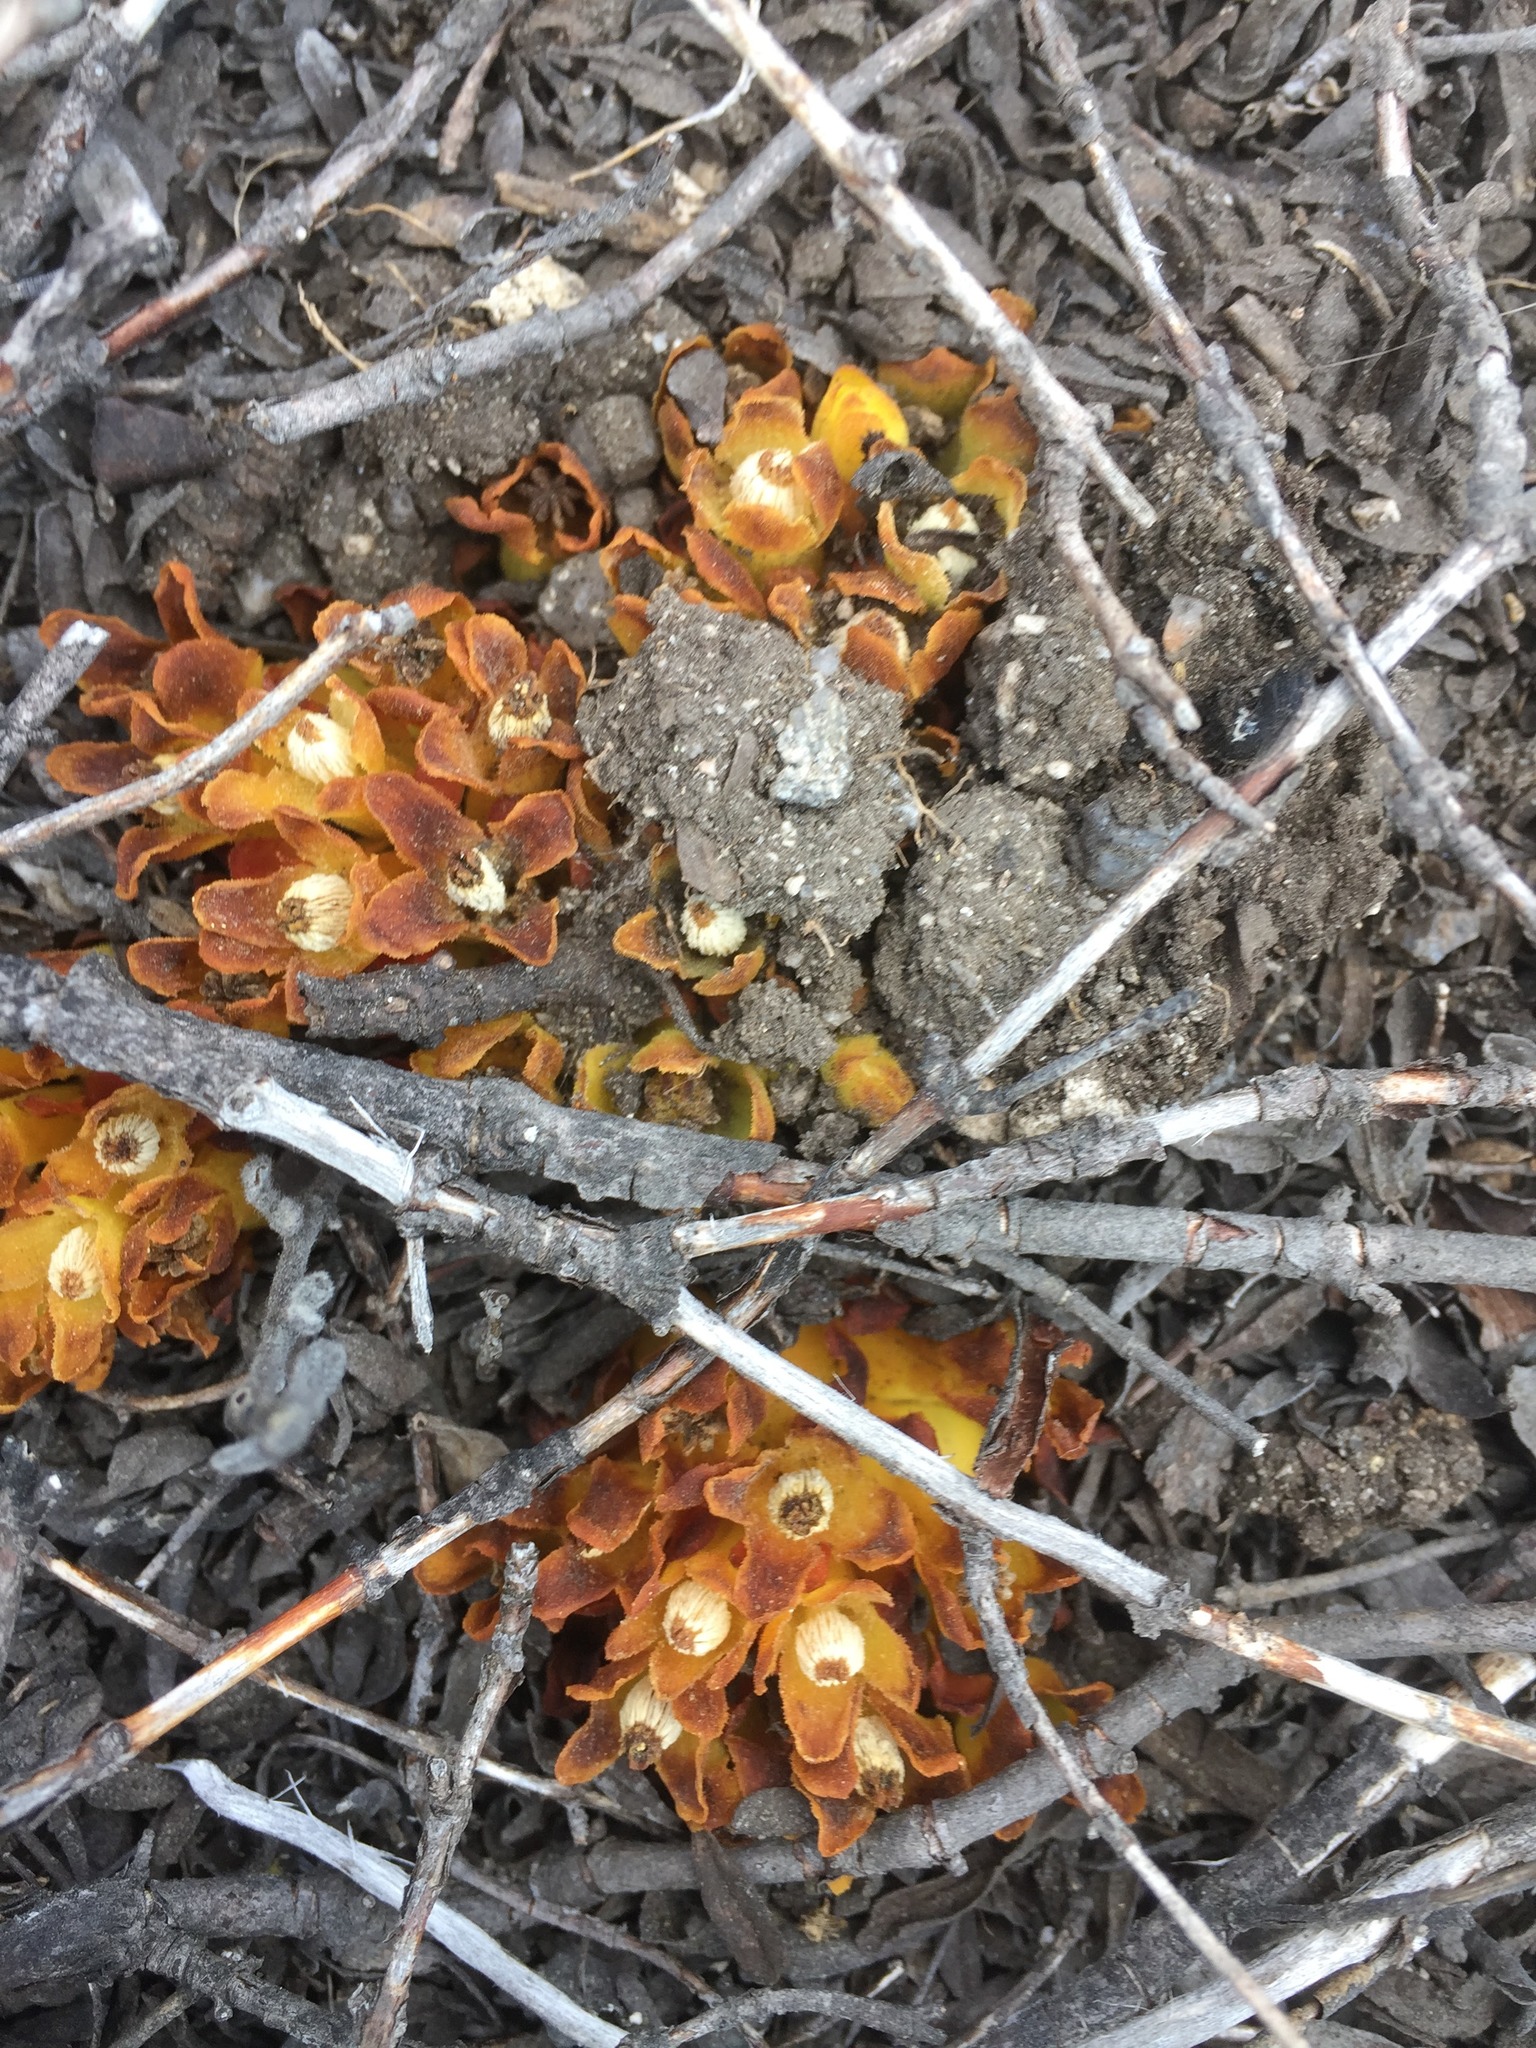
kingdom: Plantae
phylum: Tracheophyta
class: Magnoliopsida
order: Malvales
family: Cytinaceae
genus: Cytinus
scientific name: Cytinus hypocistis
